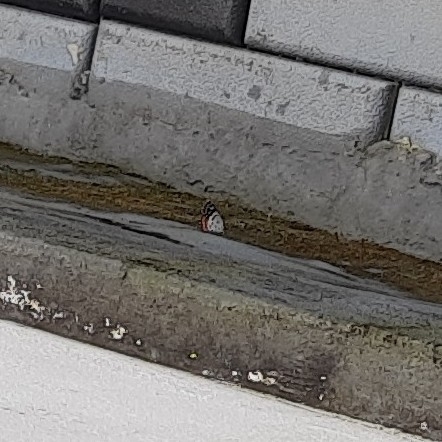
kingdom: Animalia
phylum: Arthropoda
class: Insecta
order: Lepidoptera
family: Lycaenidae
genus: Talicada
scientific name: Talicada nyseus
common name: Red pierrot
